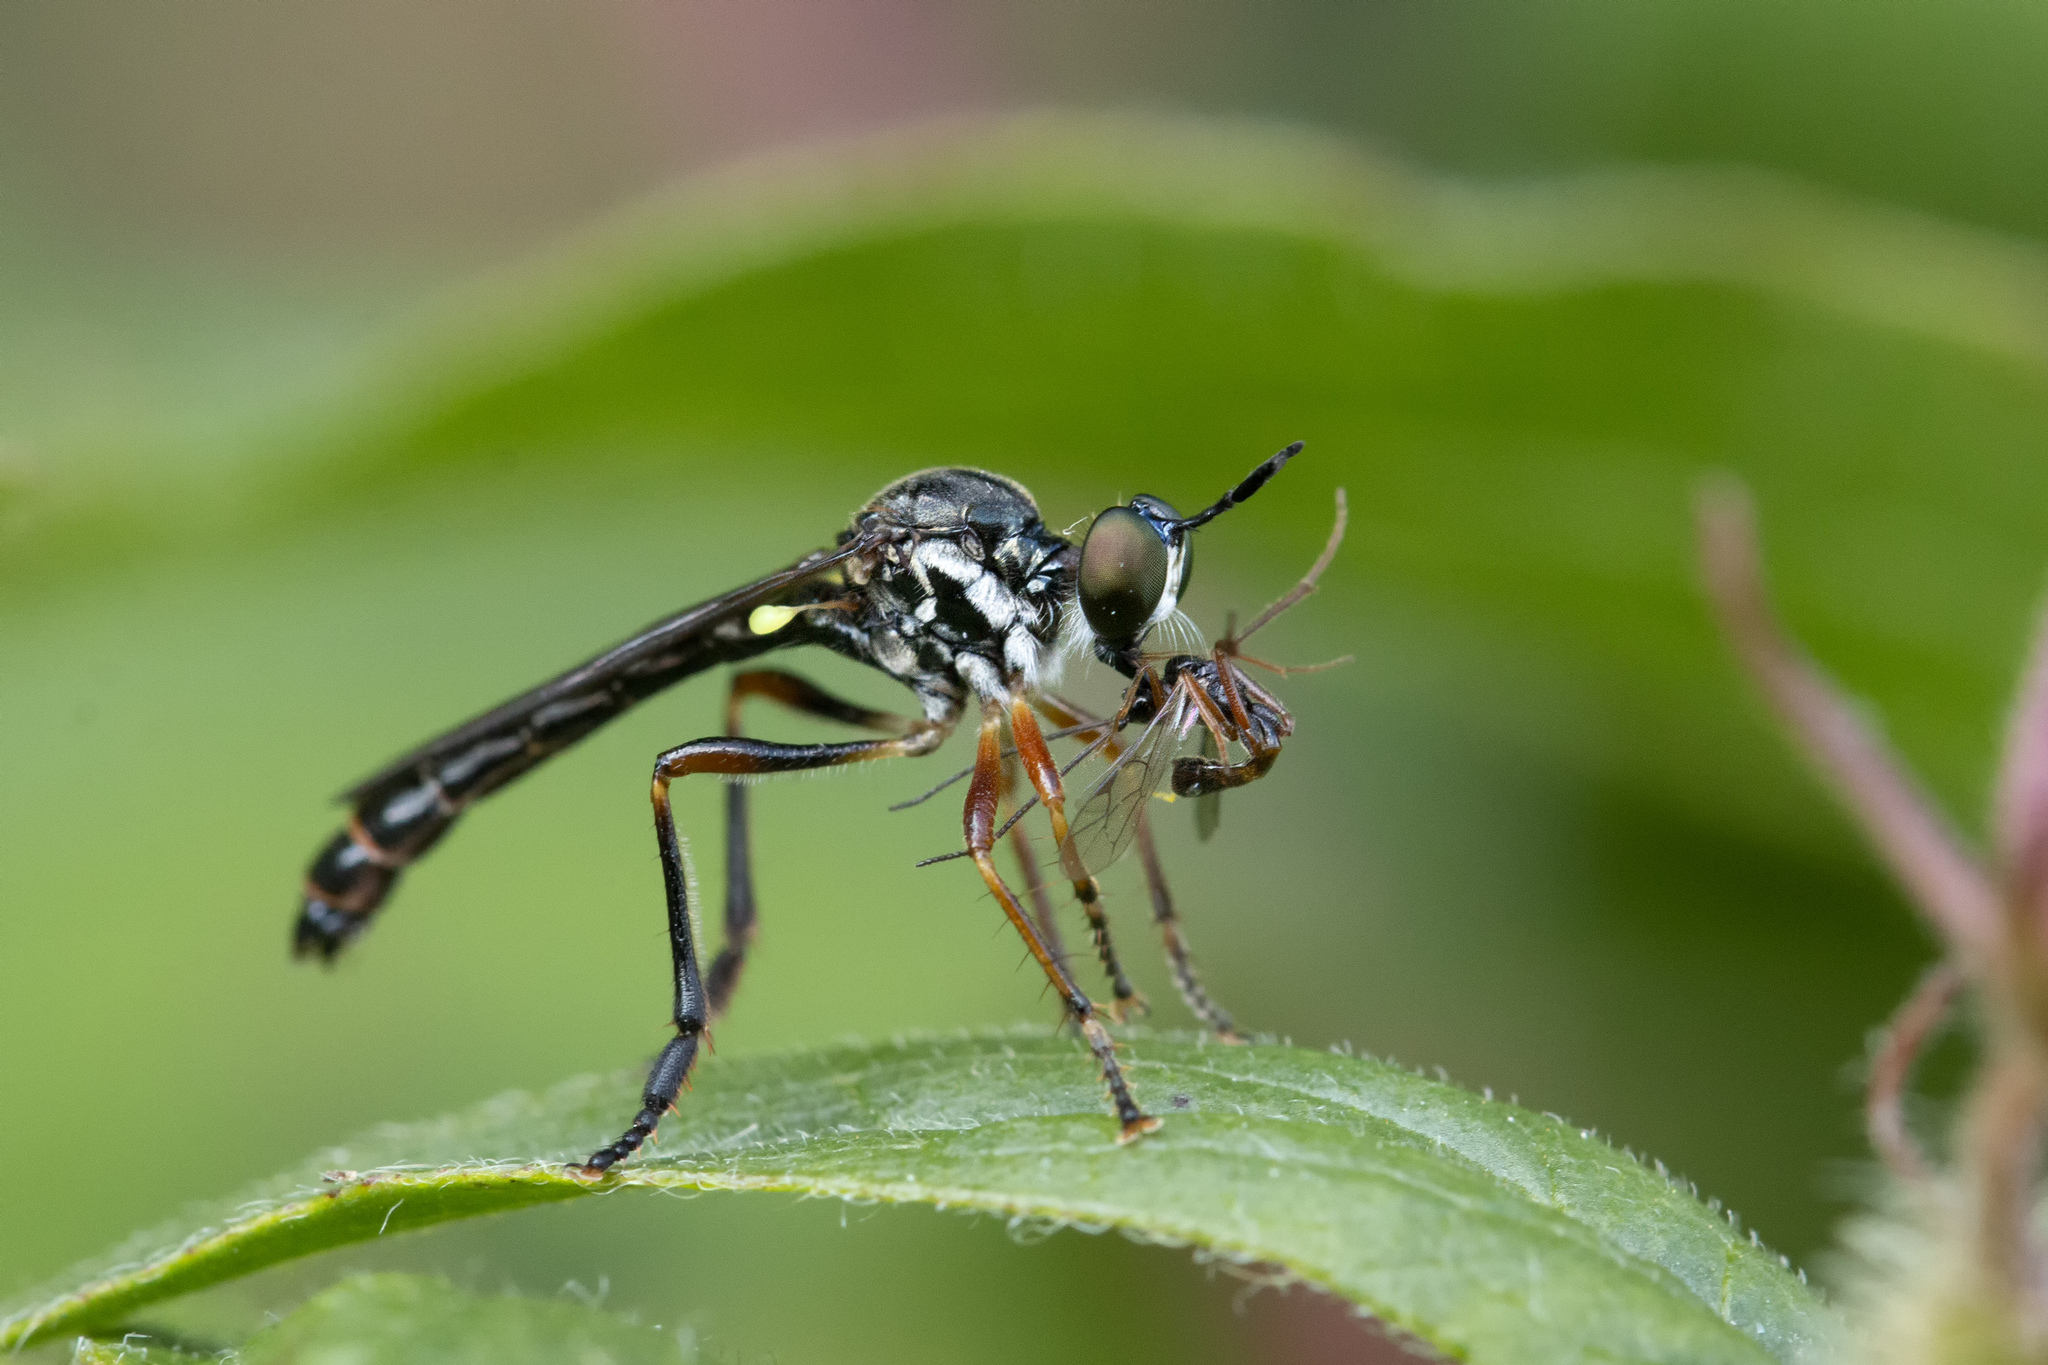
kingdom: Animalia
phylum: Arthropoda
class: Insecta
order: Diptera
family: Asilidae
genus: Dioctria
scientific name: Dioctria hyalipennis
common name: Stripe-legged robberfly
